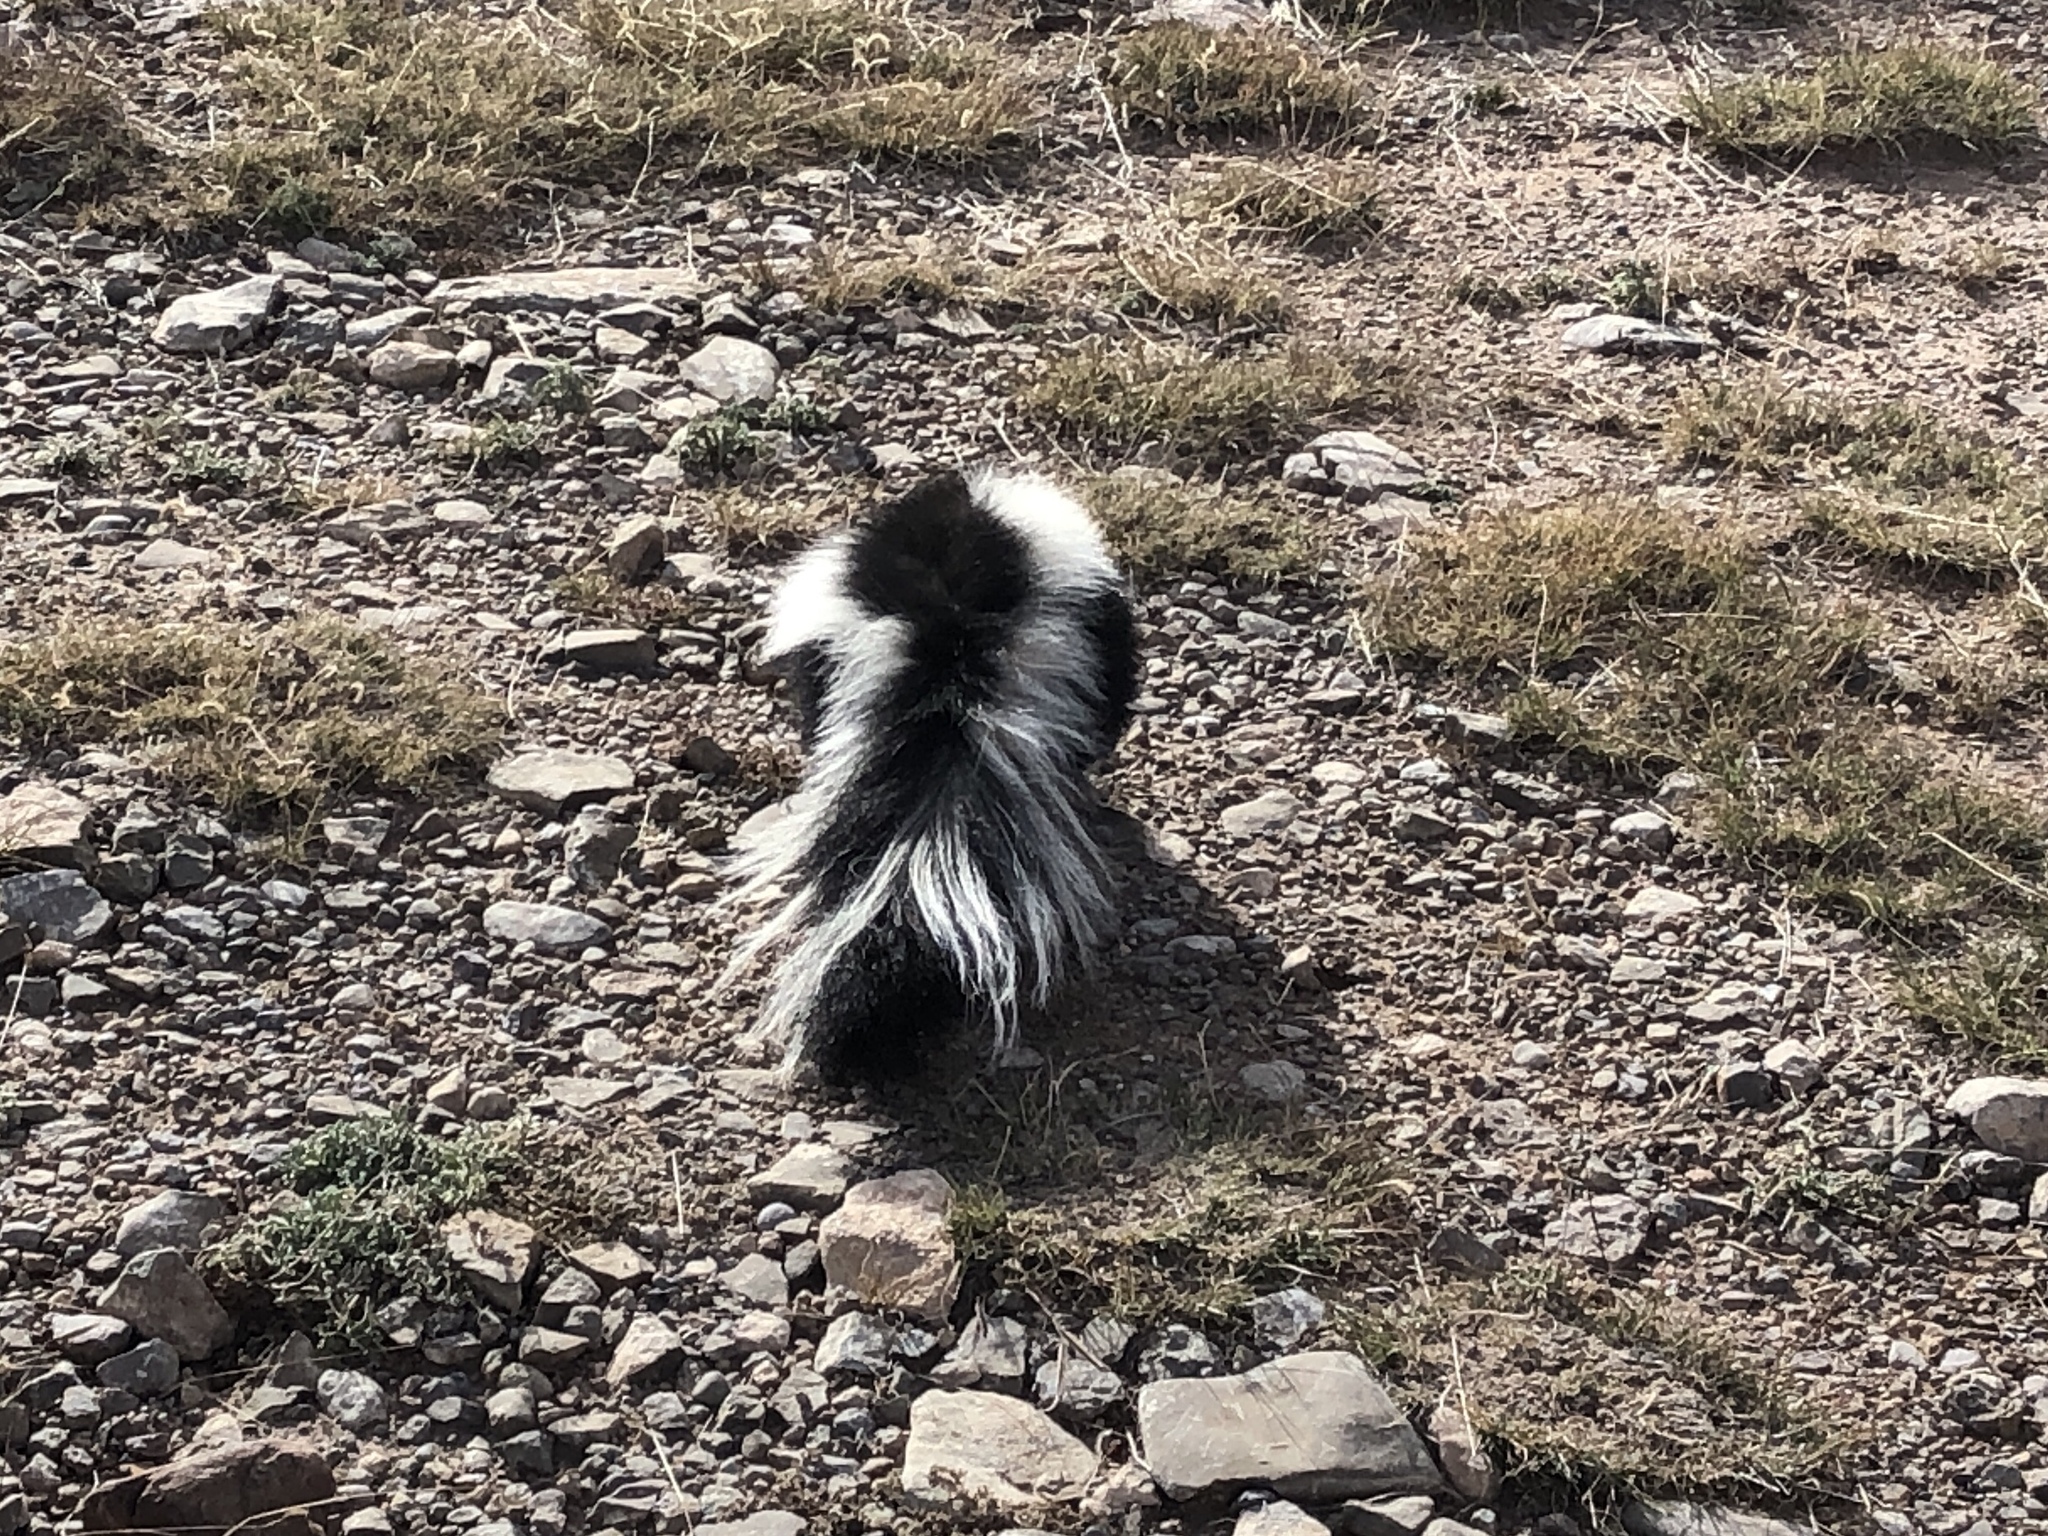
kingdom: Animalia
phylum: Chordata
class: Mammalia
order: Carnivora
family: Mephitidae
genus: Mephitis
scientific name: Mephitis mephitis
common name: Striped skunk
